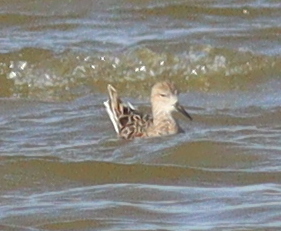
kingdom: Animalia
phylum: Chordata
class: Aves
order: Charadriiformes
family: Scolopacidae
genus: Calidris
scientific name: Calidris pugnax
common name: Ruff
